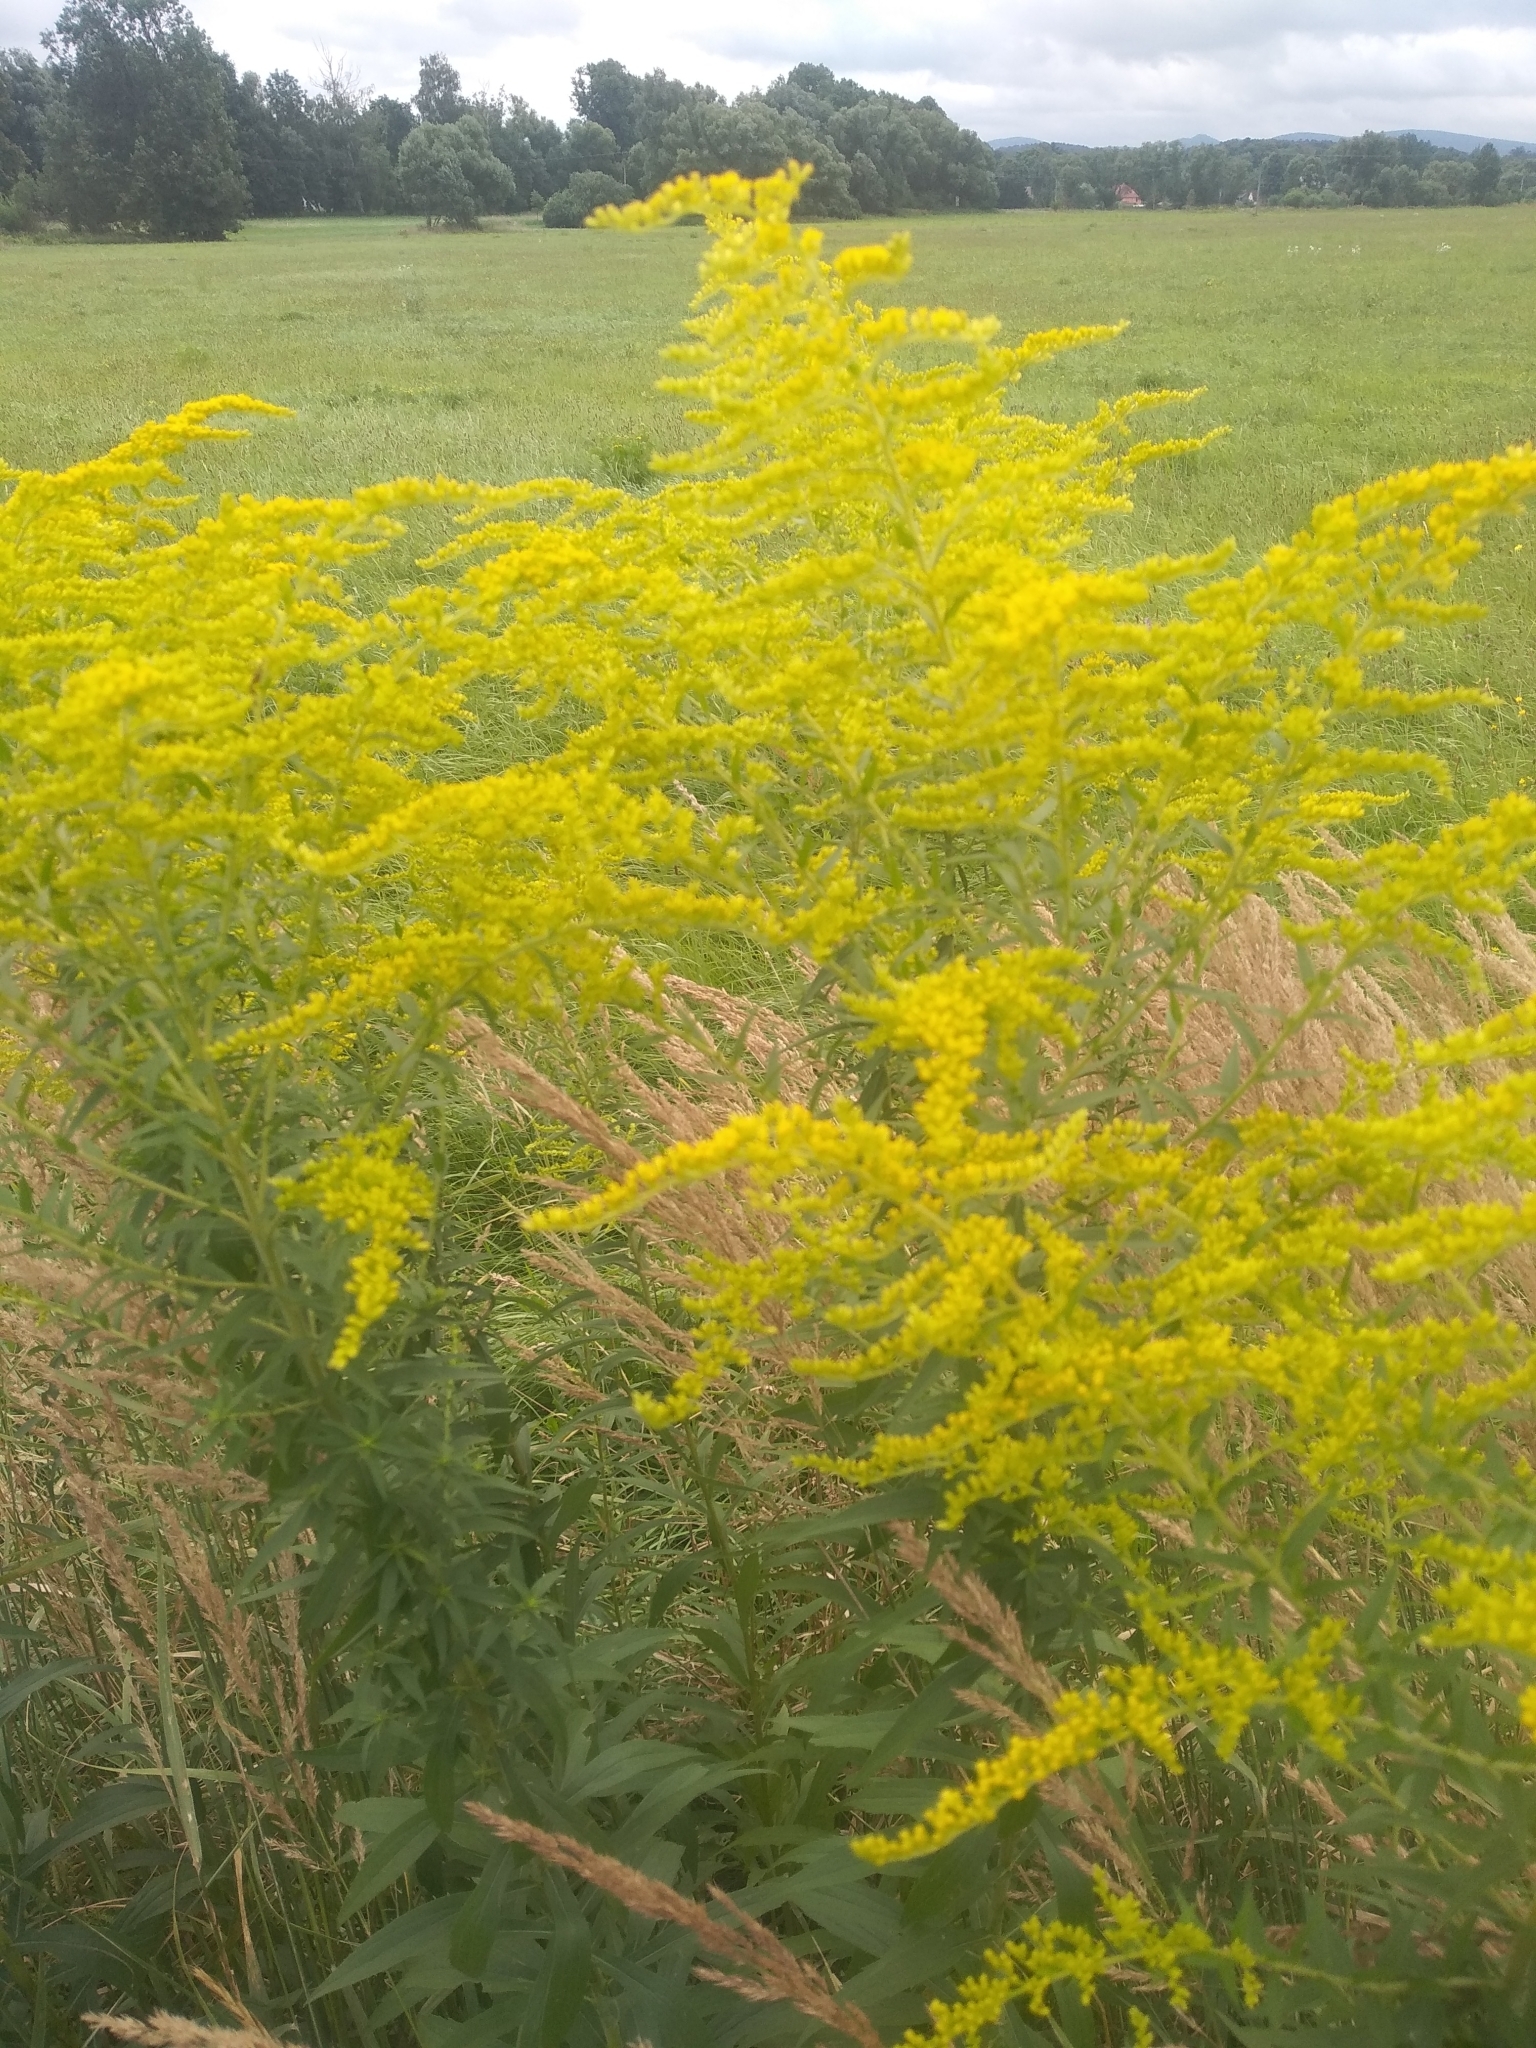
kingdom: Plantae
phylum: Tracheophyta
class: Magnoliopsida
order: Asterales
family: Asteraceae
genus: Solidago
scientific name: Solidago canadensis
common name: Canada goldenrod
